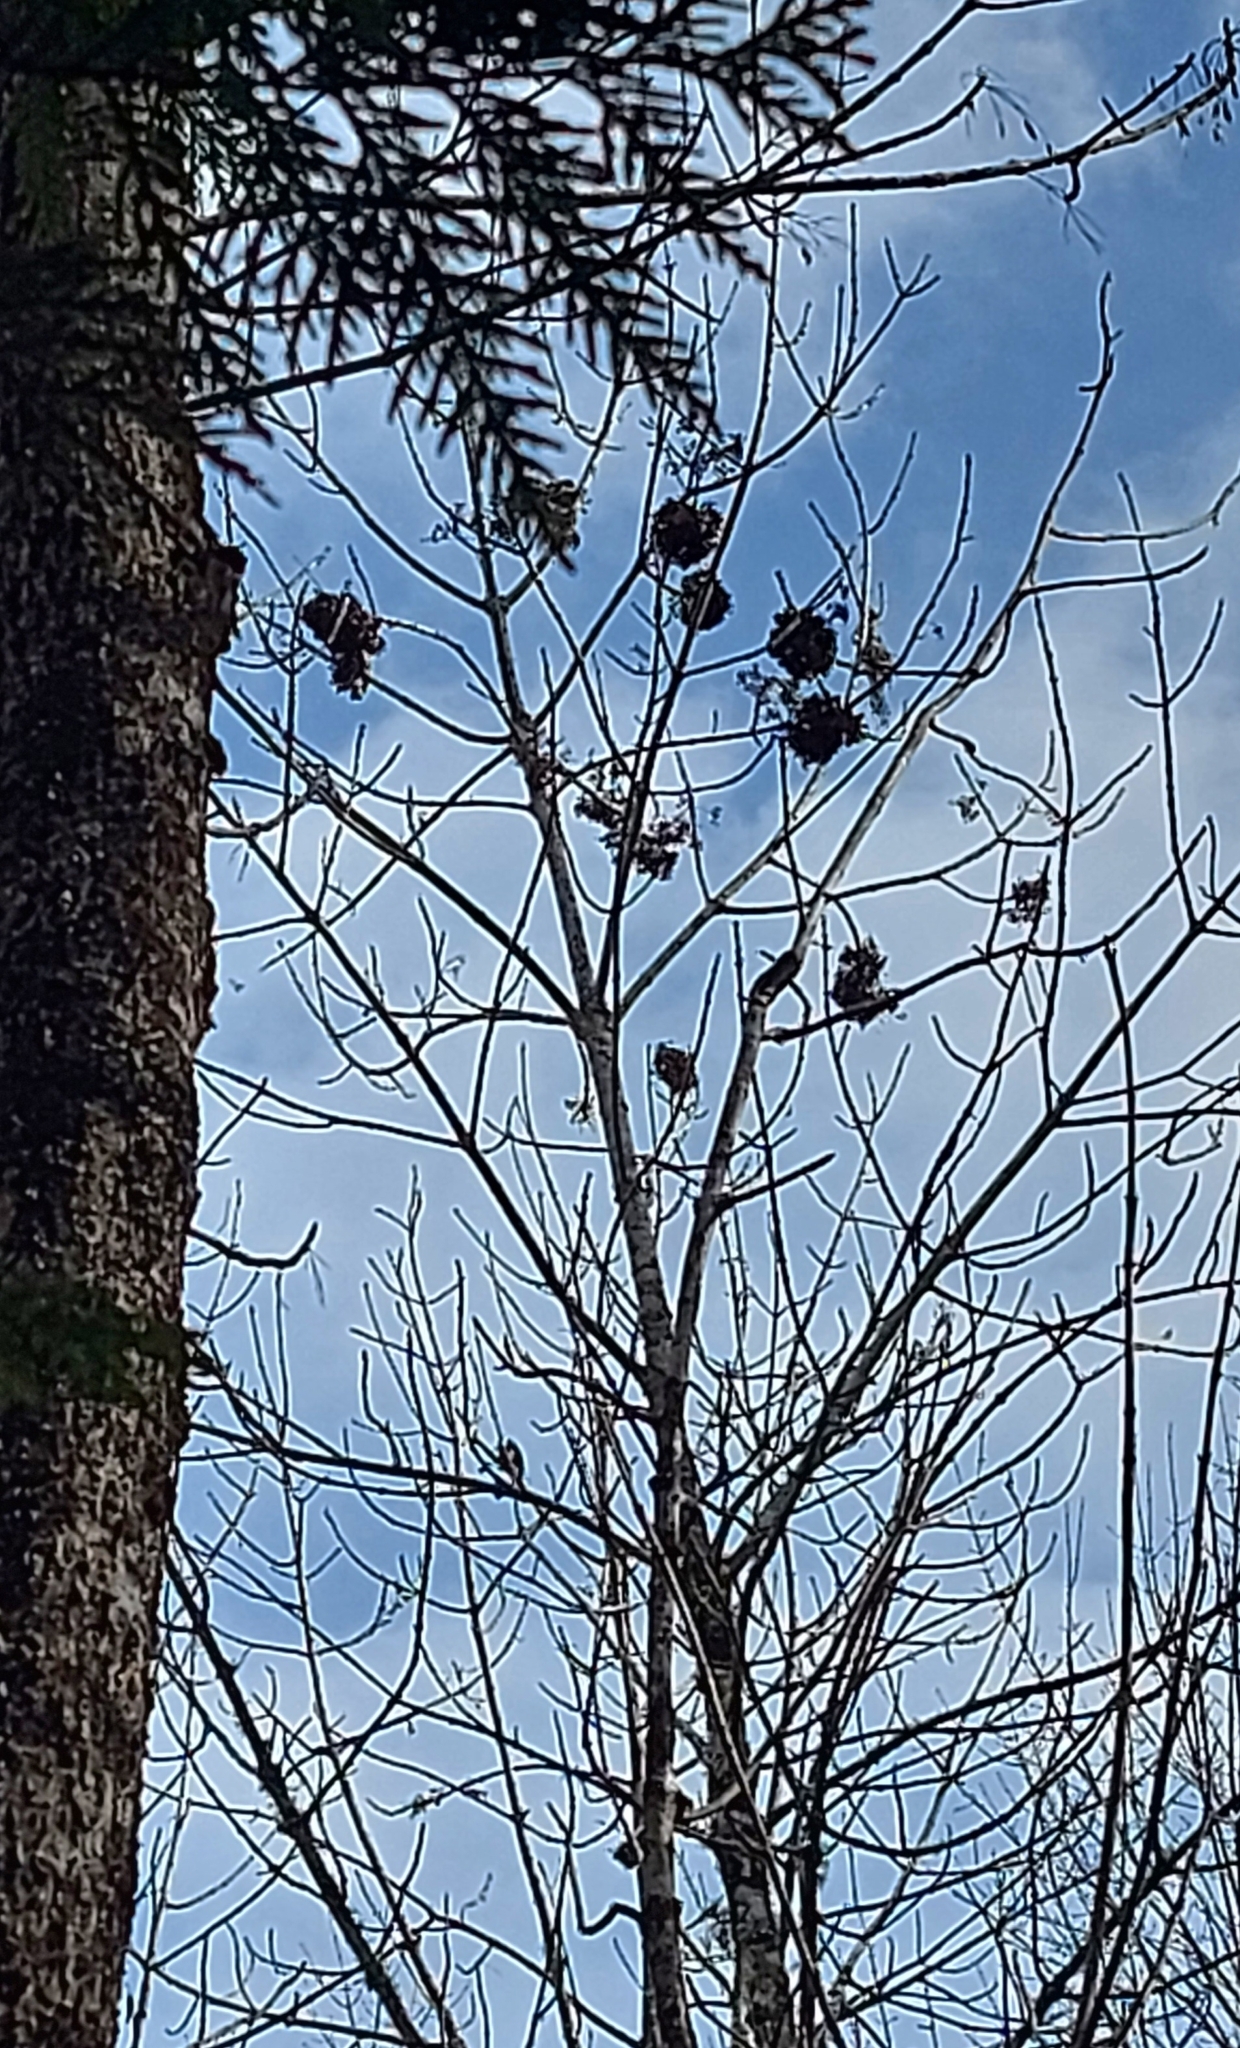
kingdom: Plantae
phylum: Tracheophyta
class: Magnoliopsida
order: Lamiales
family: Oleaceae
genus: Fraxinus
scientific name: Fraxinus nigra
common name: Black ash
